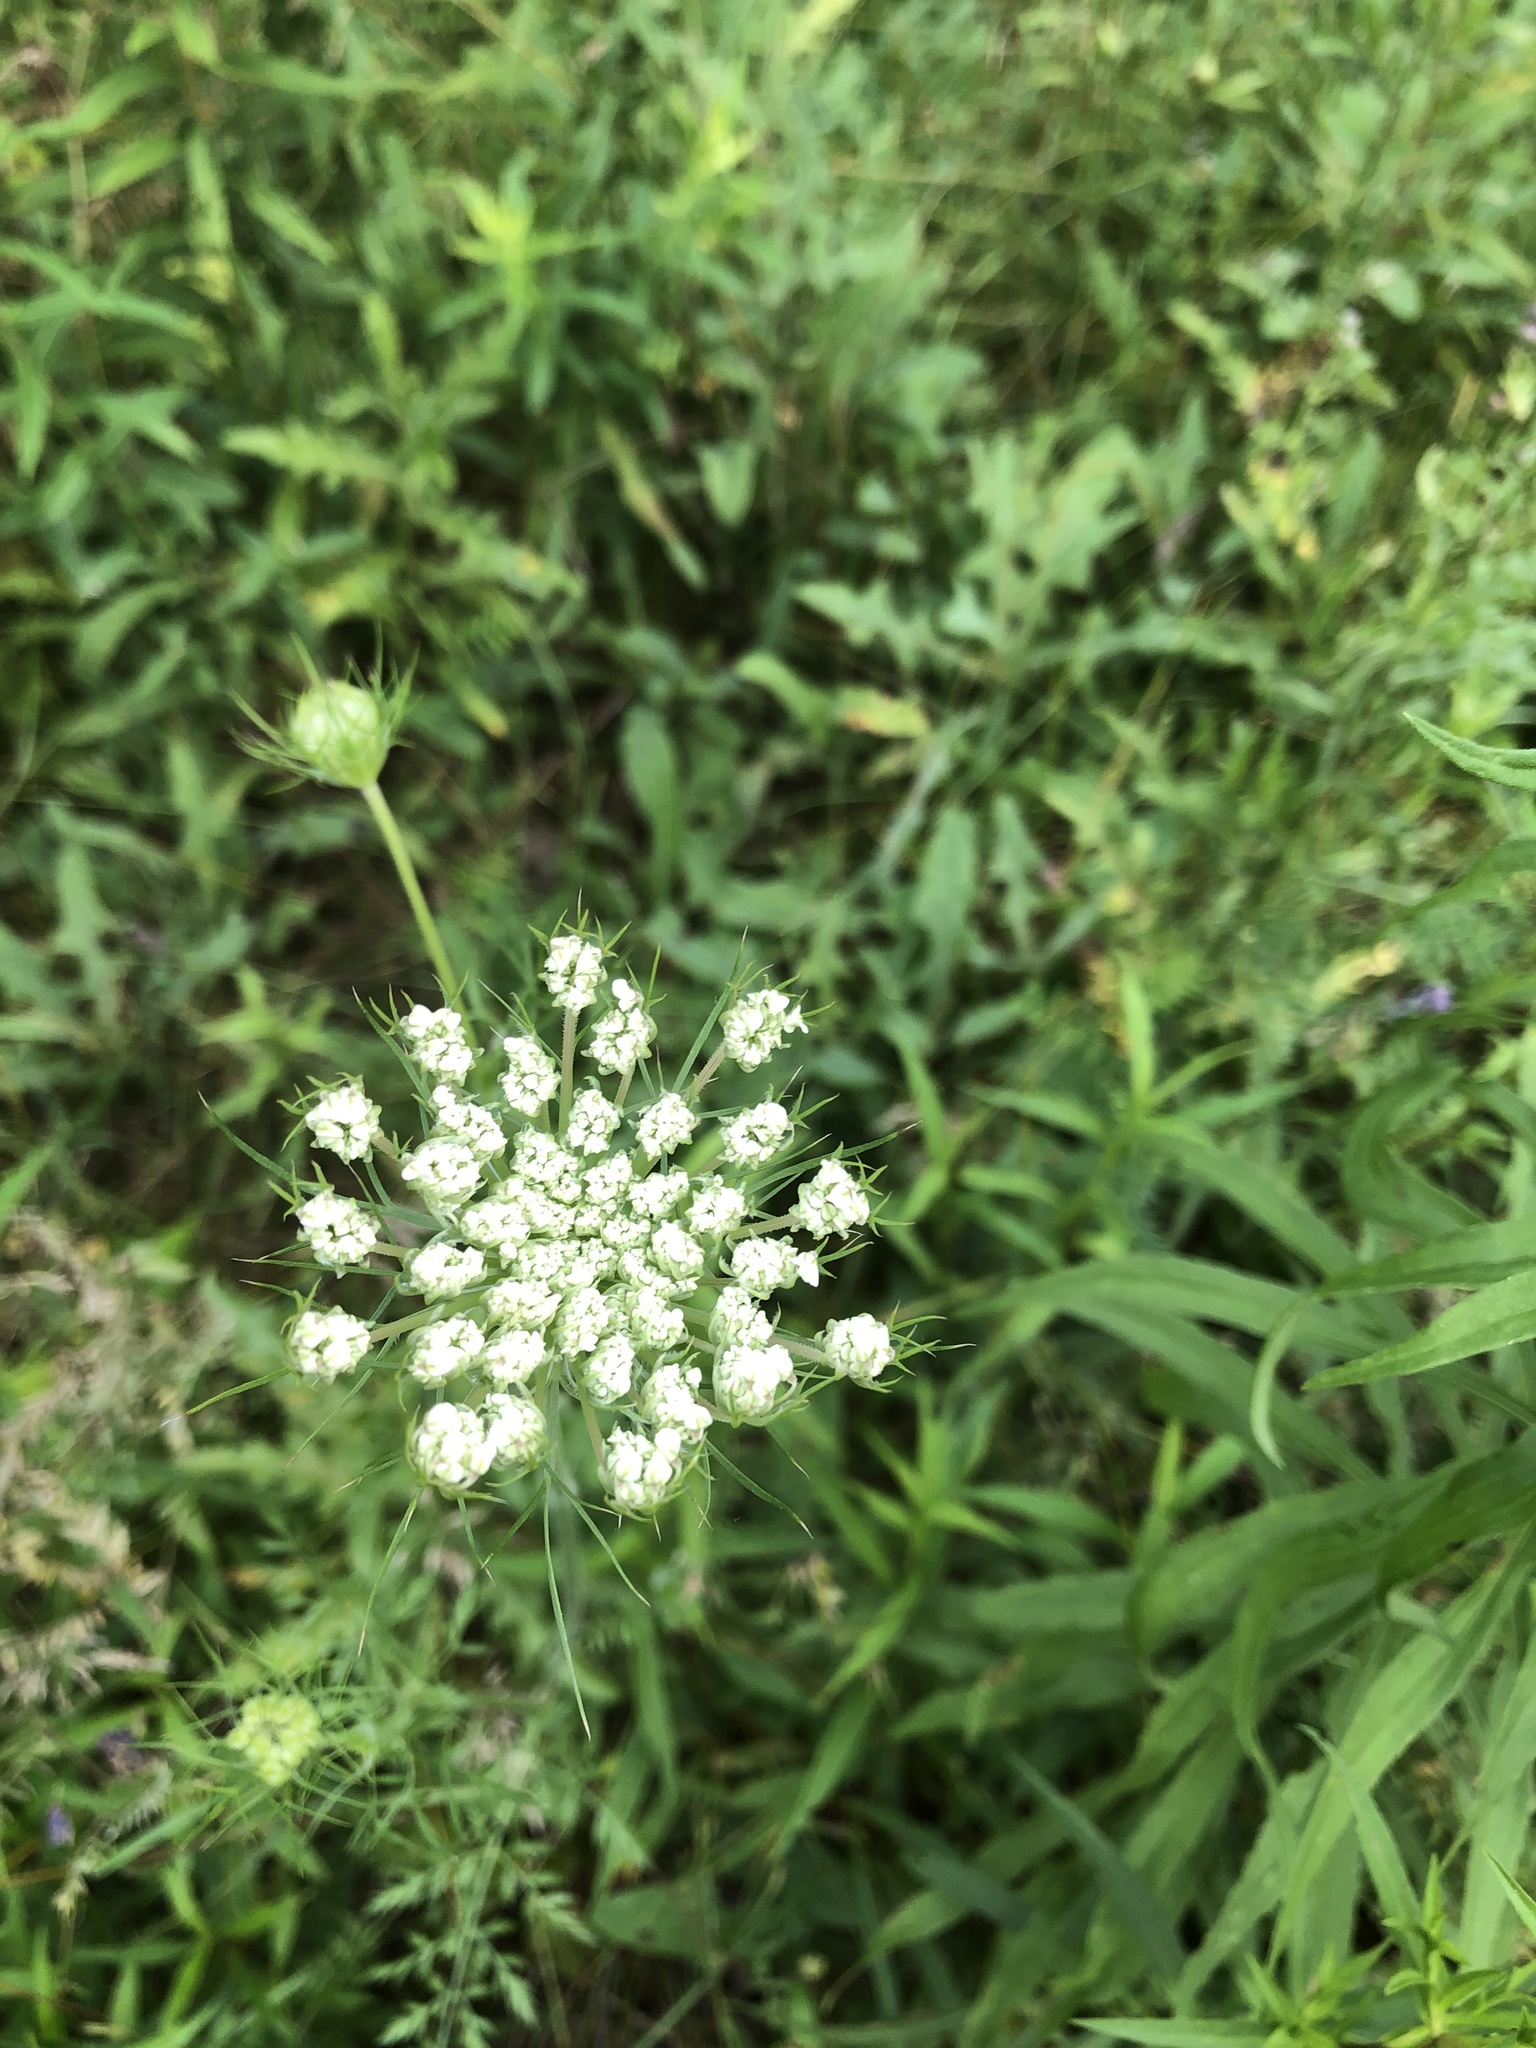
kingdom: Plantae
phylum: Tracheophyta
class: Magnoliopsida
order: Apiales
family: Apiaceae
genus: Daucus
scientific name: Daucus carota
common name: Wild carrot
